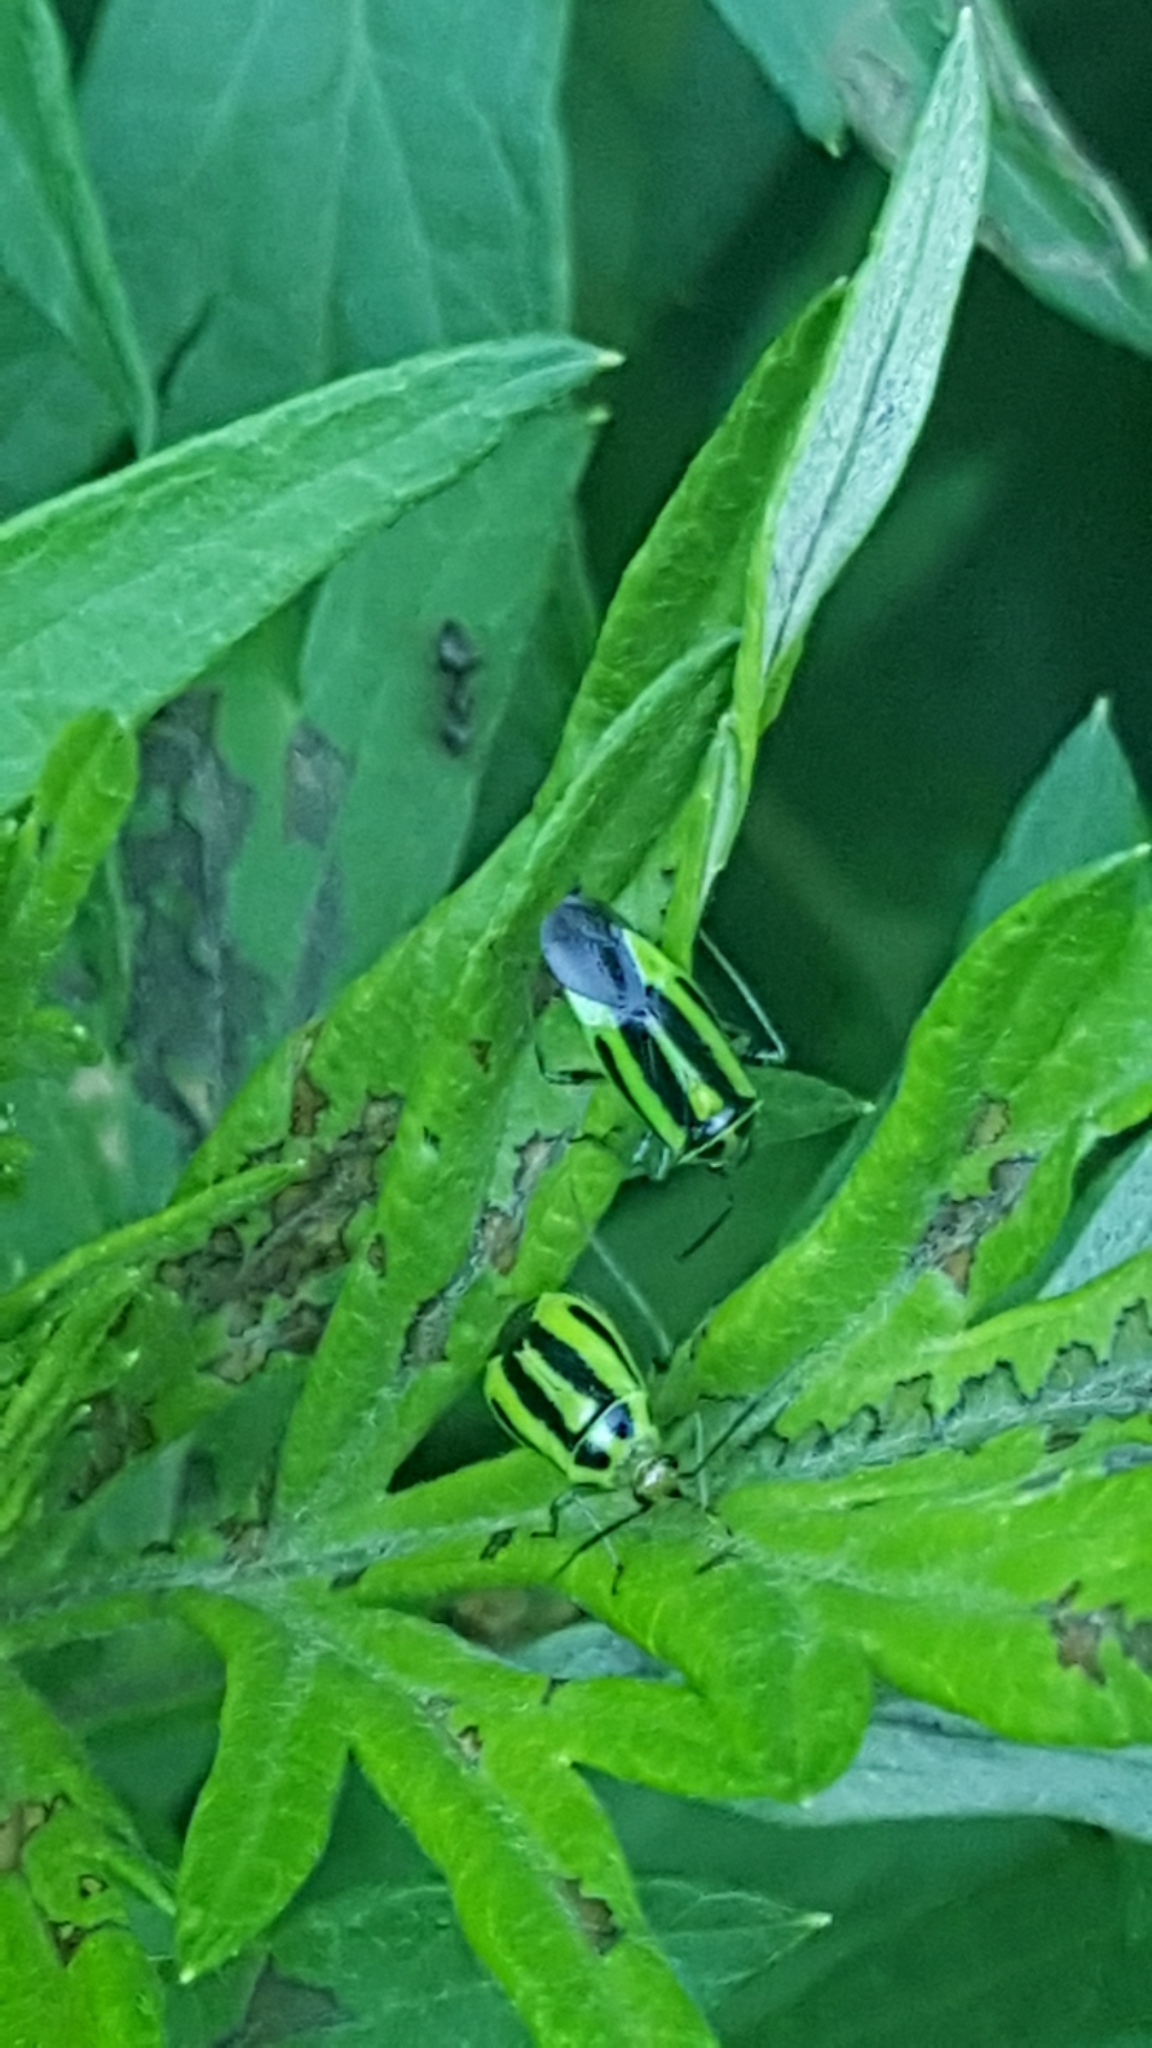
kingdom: Animalia
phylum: Arthropoda
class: Insecta
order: Hemiptera
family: Miridae
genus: Poecilocapsus
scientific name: Poecilocapsus lineatus
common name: Four-lined plant bug
